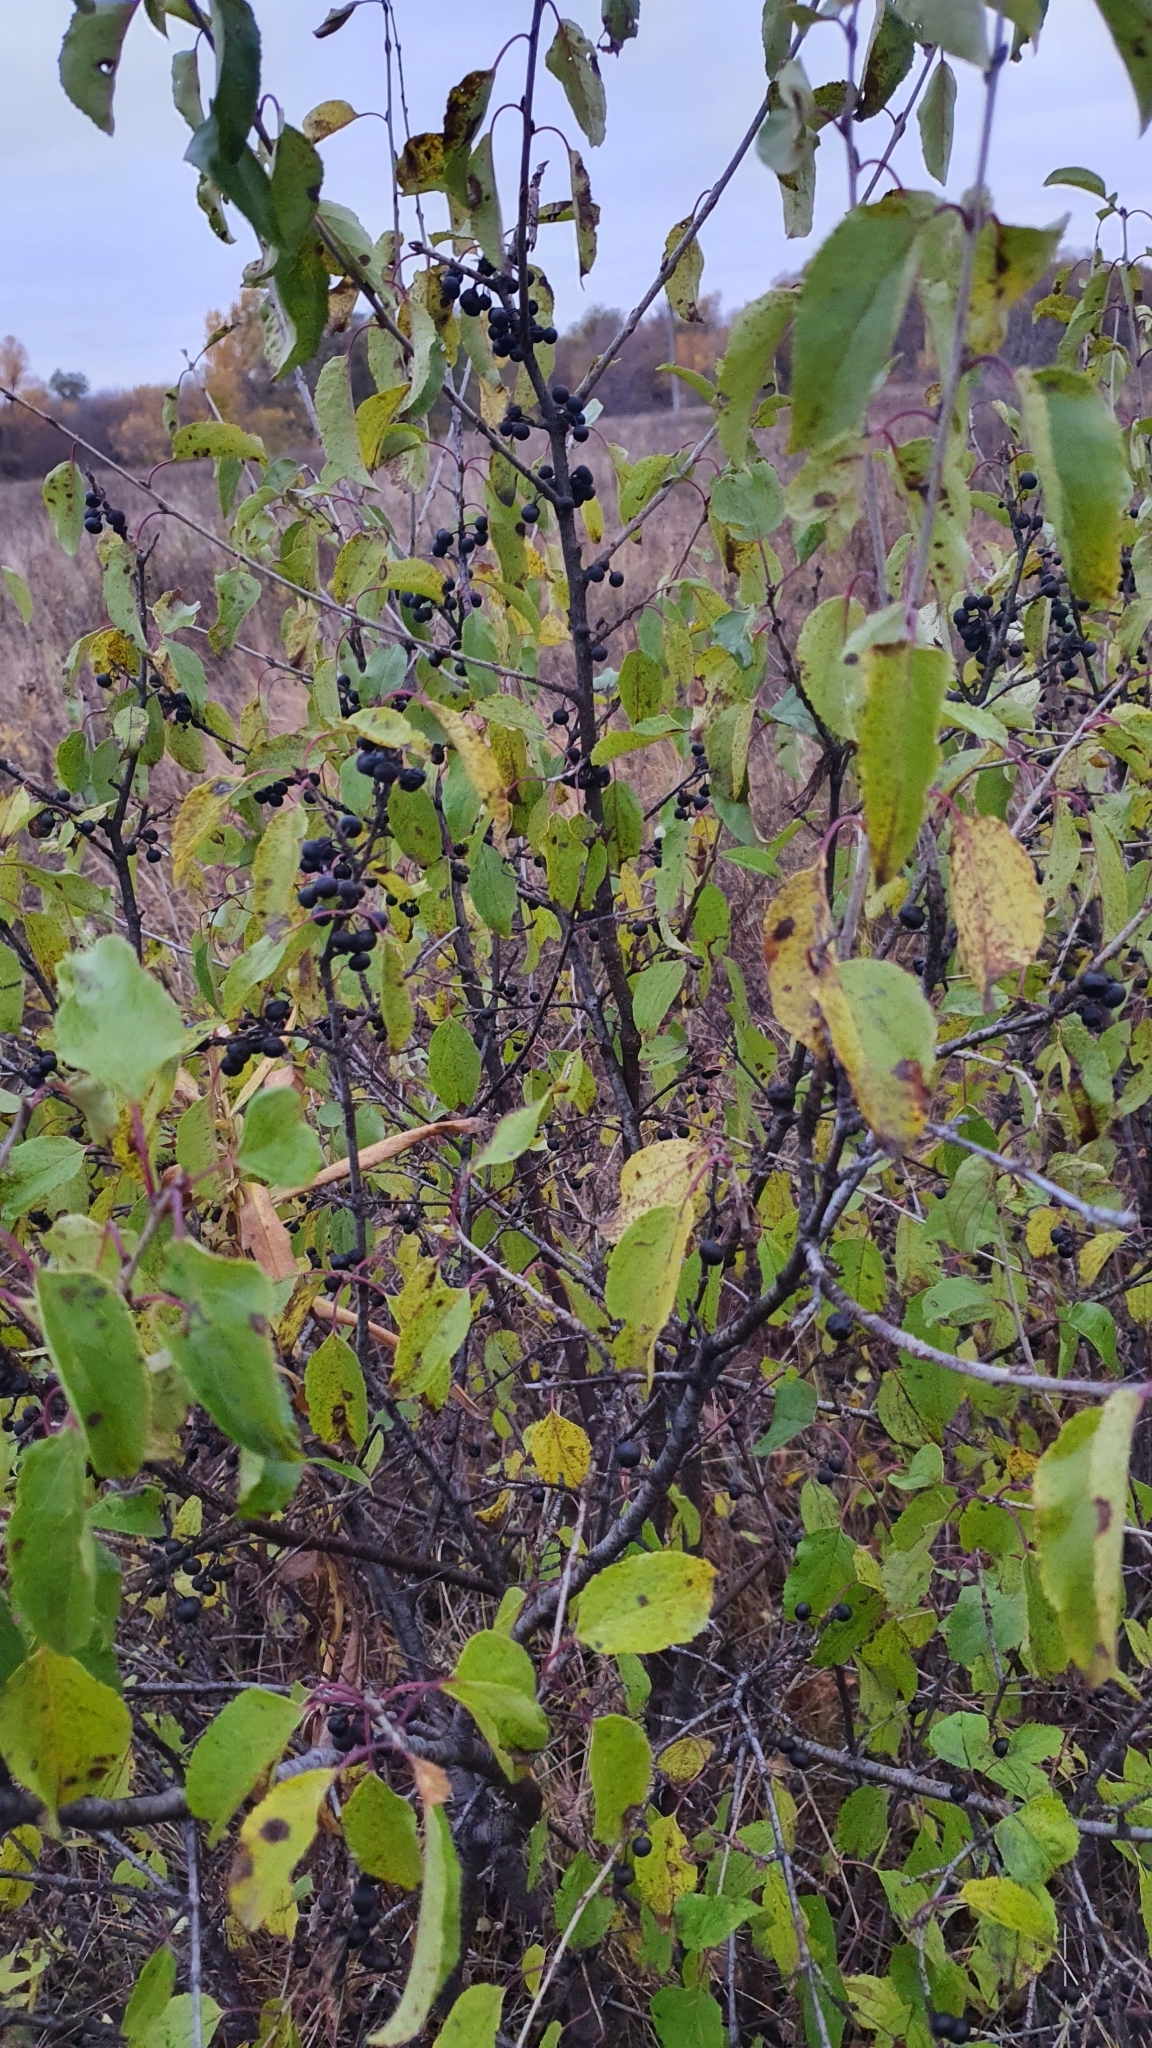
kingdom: Plantae
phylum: Tracheophyta
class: Magnoliopsida
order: Rosales
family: Rhamnaceae
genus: Rhamnus
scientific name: Rhamnus cathartica
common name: Common buckthorn
